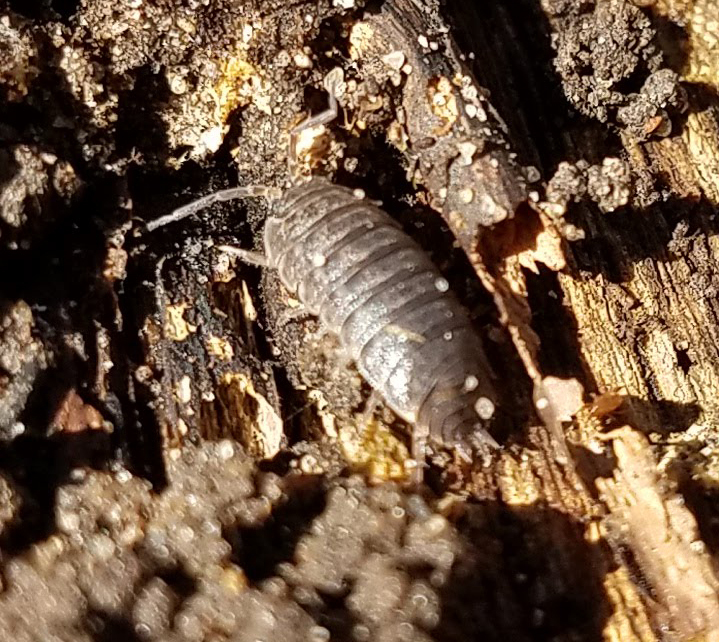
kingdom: Animalia
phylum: Arthropoda
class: Malacostraca
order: Isopoda
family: Trachelipodidae
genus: Trachelipus
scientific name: Trachelipus rathkii
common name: Isopod
